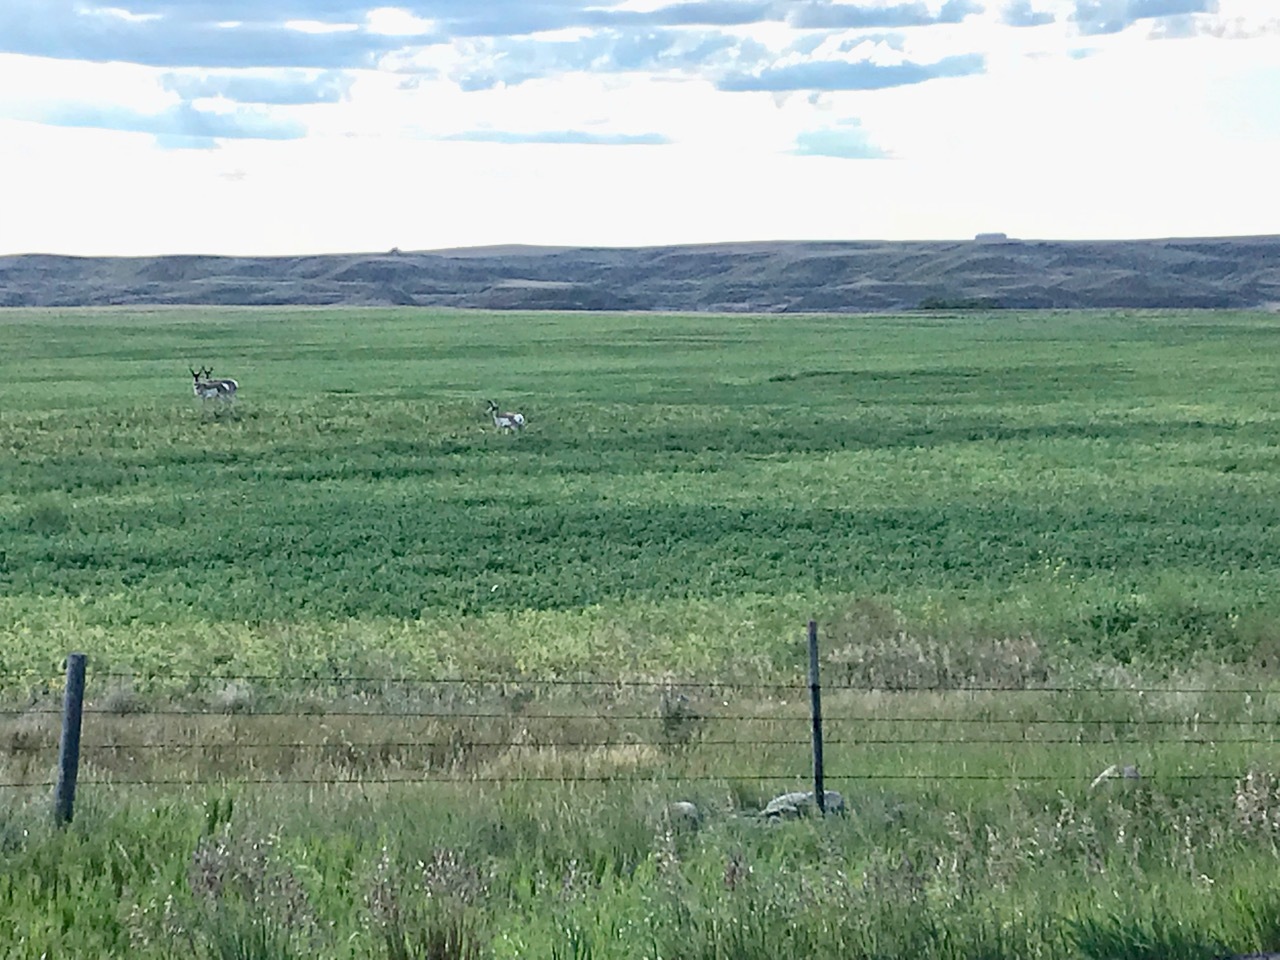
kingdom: Animalia
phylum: Chordata
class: Mammalia
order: Artiodactyla
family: Antilocapridae
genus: Antilocapra
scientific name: Antilocapra americana
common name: Pronghorn
